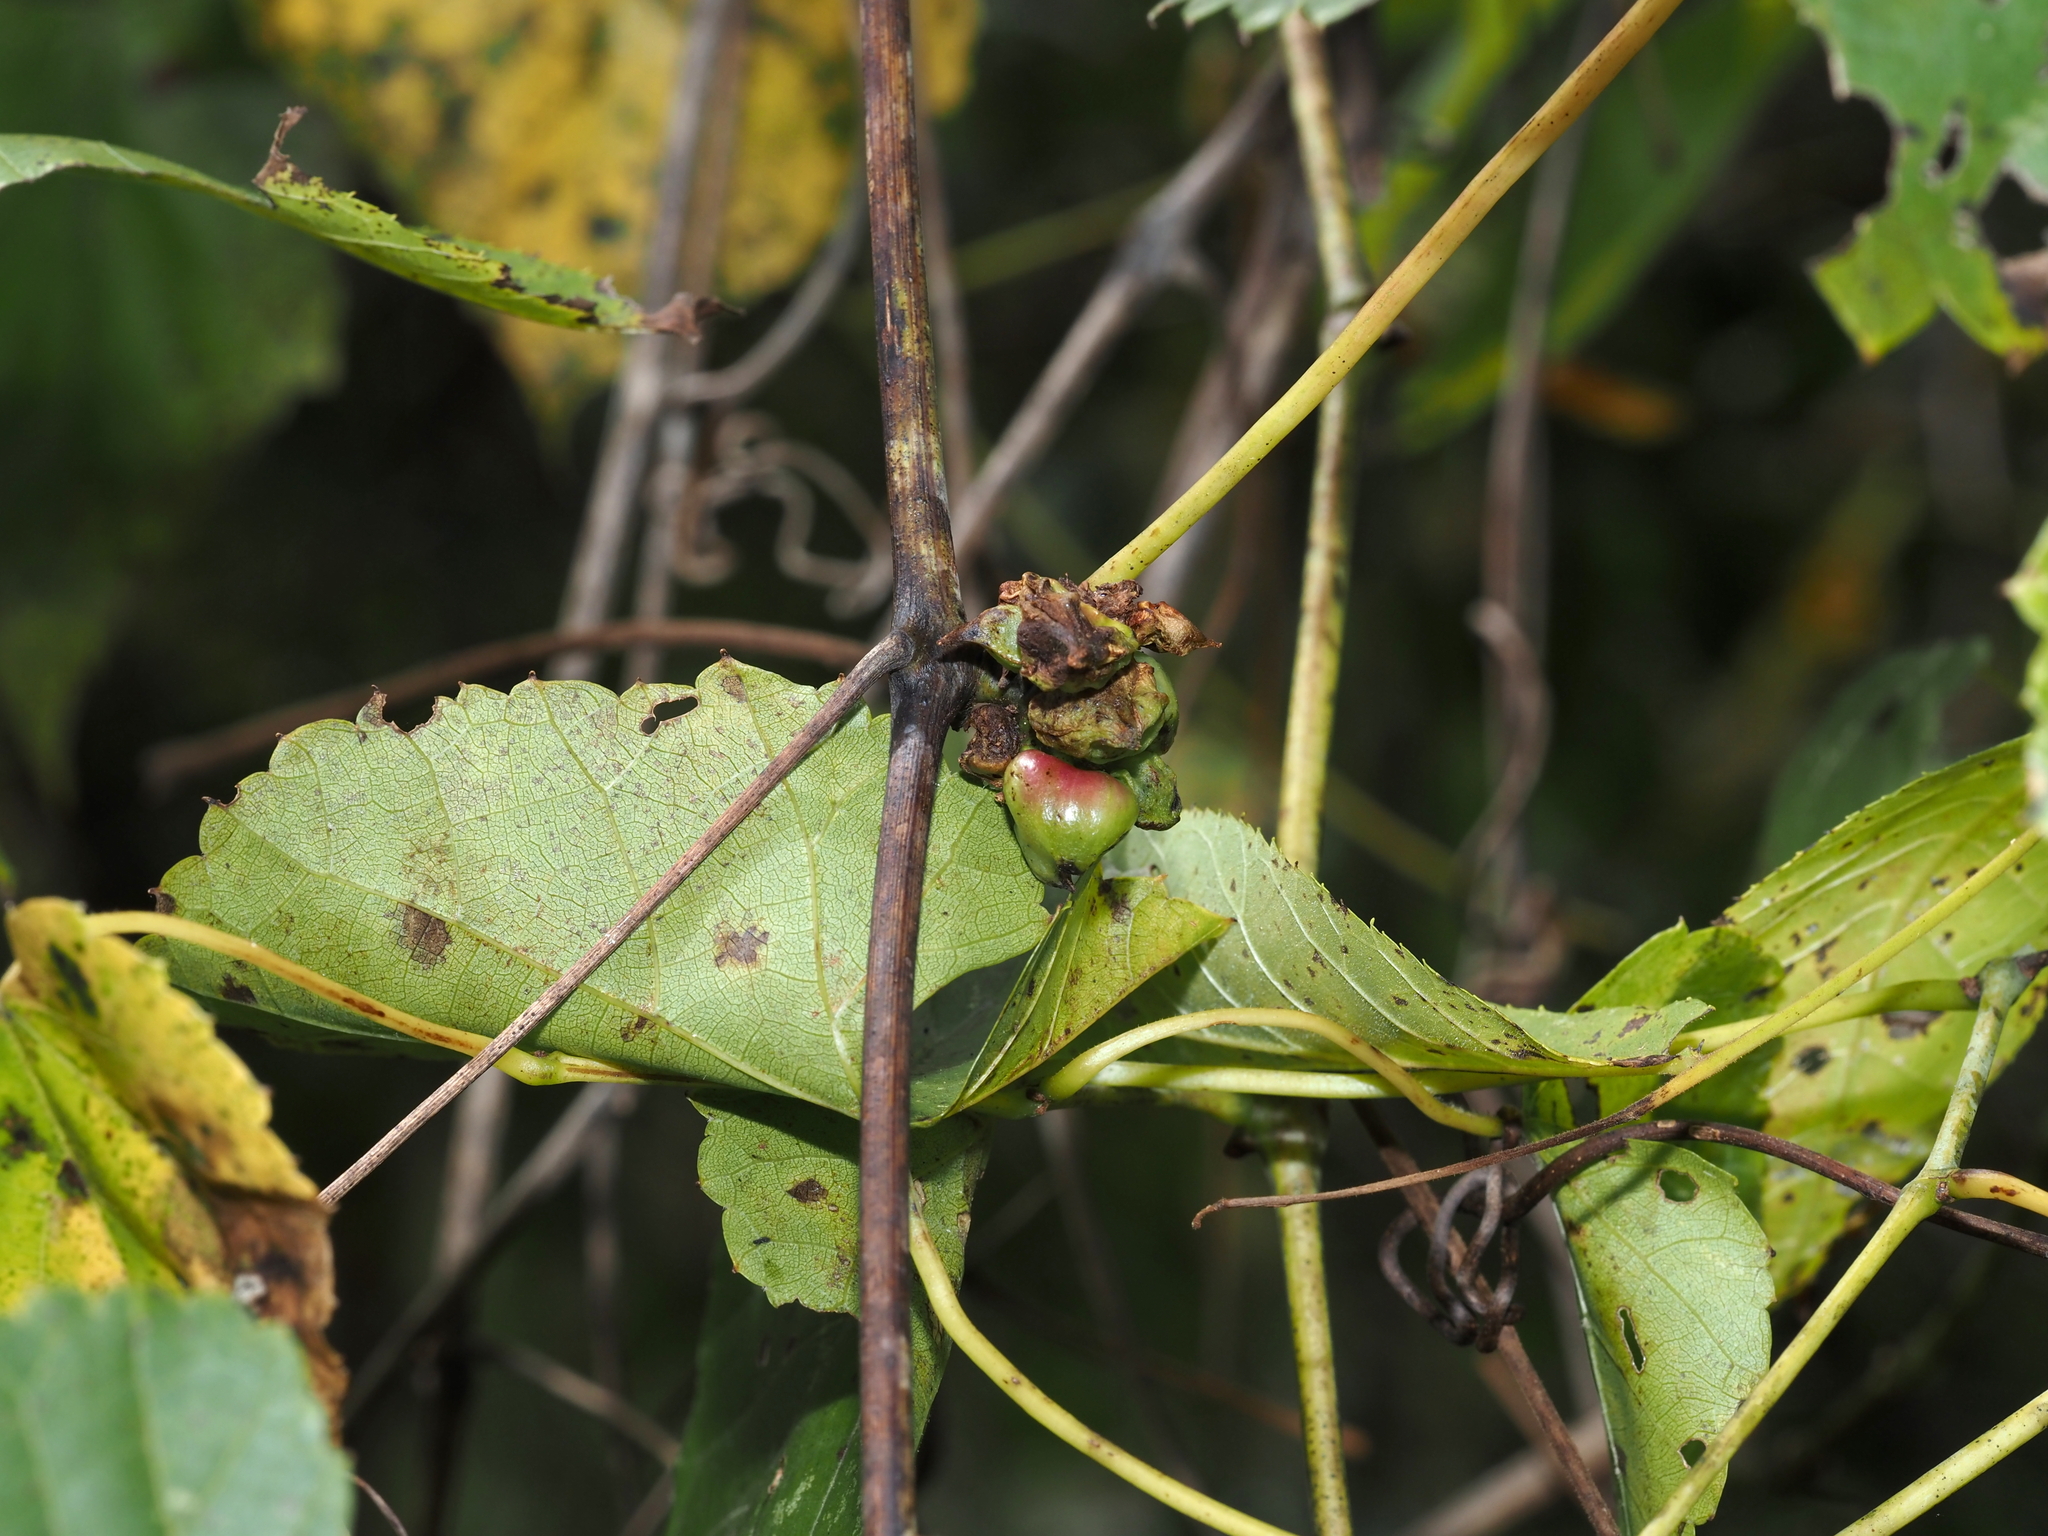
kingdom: Animalia
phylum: Arthropoda
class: Insecta
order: Diptera
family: Cecidomyiidae
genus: Ampelomyia
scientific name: Ampelomyia vitiscoryloides
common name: Grape filbert gall
